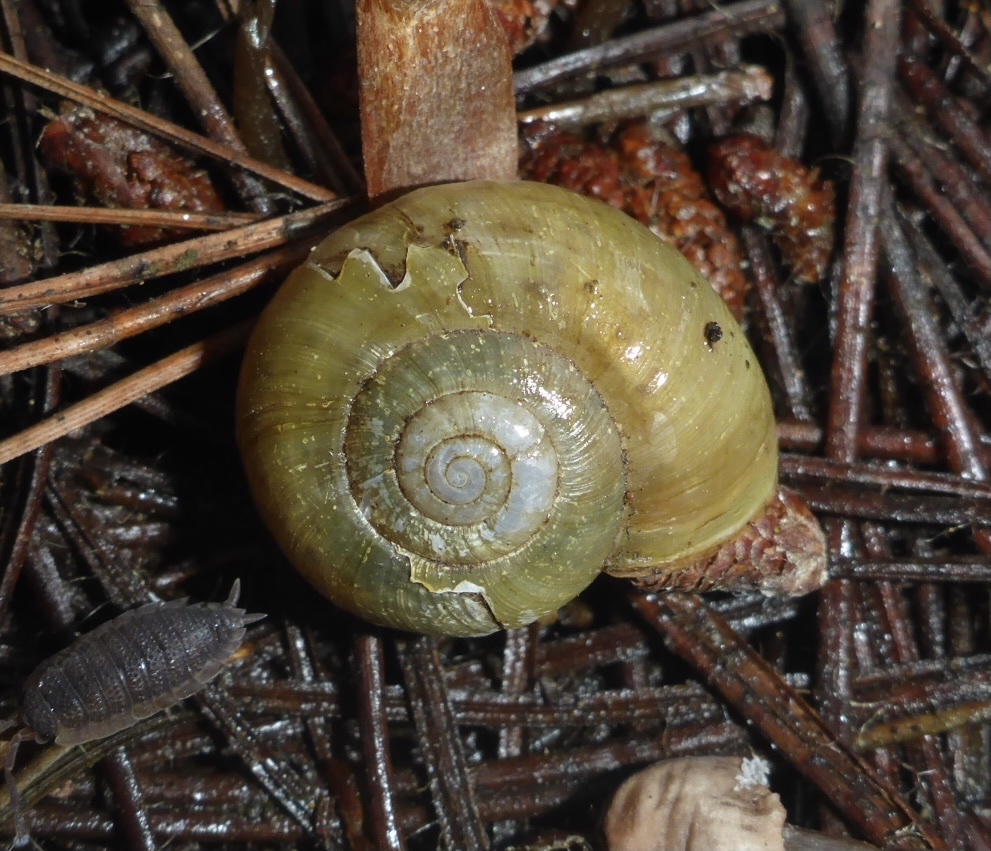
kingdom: Animalia
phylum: Mollusca
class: Gastropoda
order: Stylommatophora
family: Haplotrematidae
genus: Haplotrema
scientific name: Haplotrema minimum
